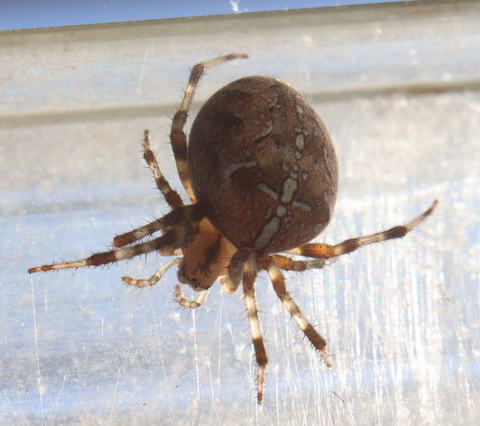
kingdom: Animalia
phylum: Arthropoda
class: Arachnida
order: Araneae
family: Araneidae
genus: Araneus
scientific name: Araneus diadematus
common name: Cross orbweaver
